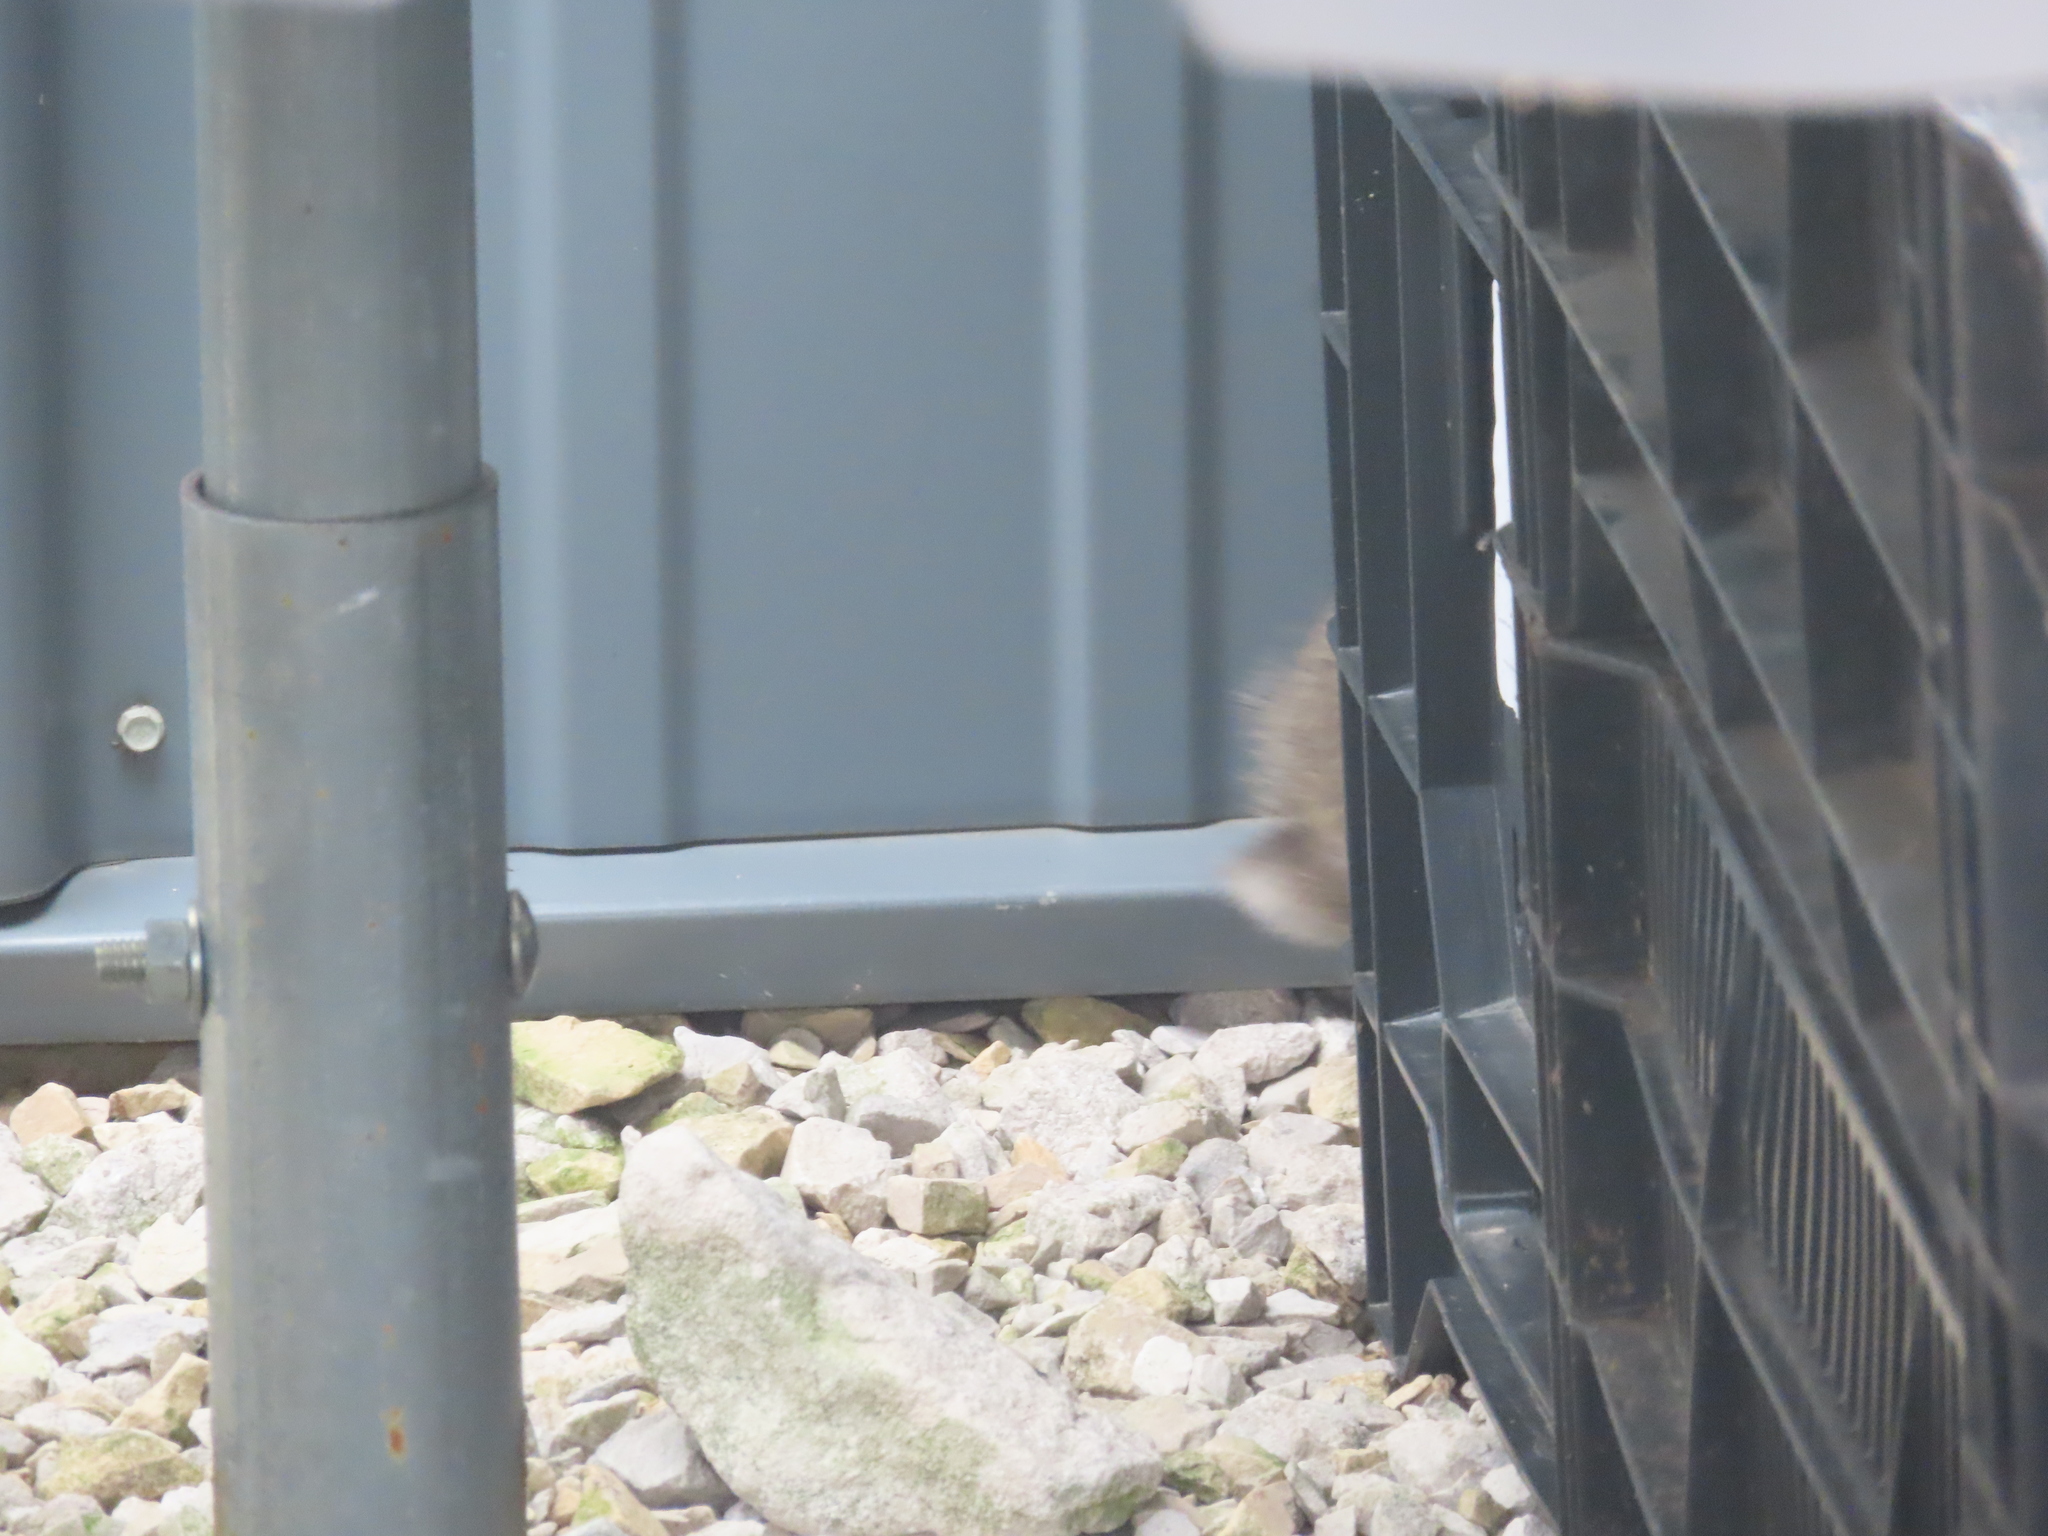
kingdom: Animalia
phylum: Chordata
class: Mammalia
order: Lagomorpha
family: Leporidae
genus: Sylvilagus
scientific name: Sylvilagus floridanus
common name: Eastern cottontail
